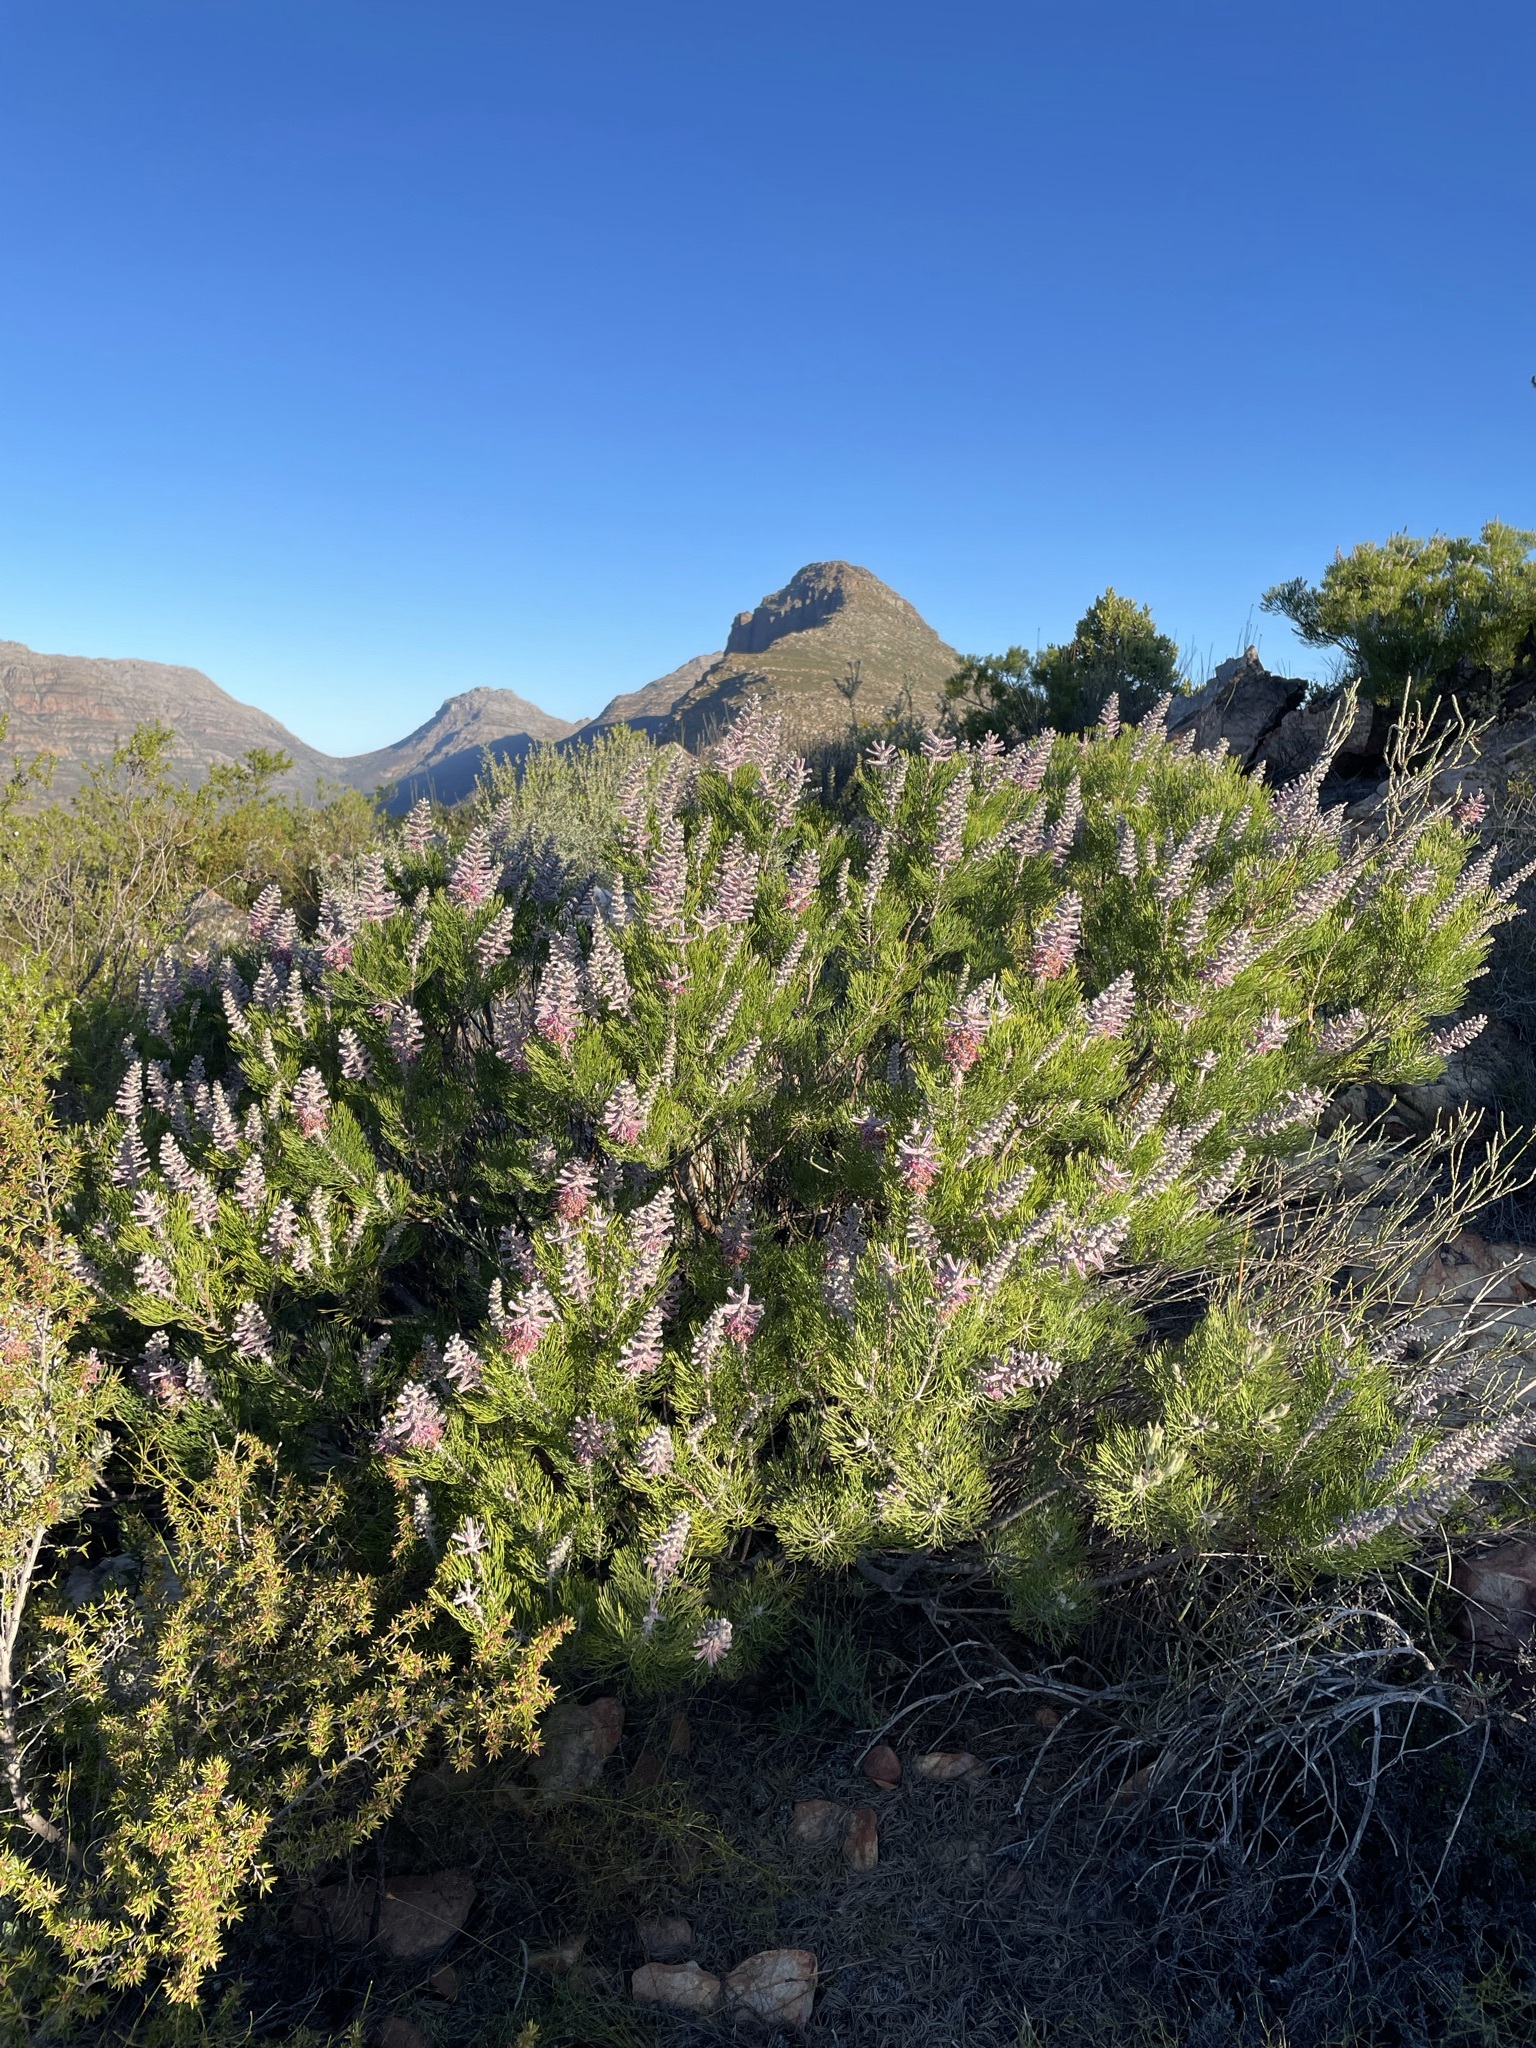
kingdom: Plantae
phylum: Tracheophyta
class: Magnoliopsida
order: Proteales
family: Proteaceae
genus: Paranomus
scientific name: Paranomus bracteolaris
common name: Bokkeveld tree sceptre
